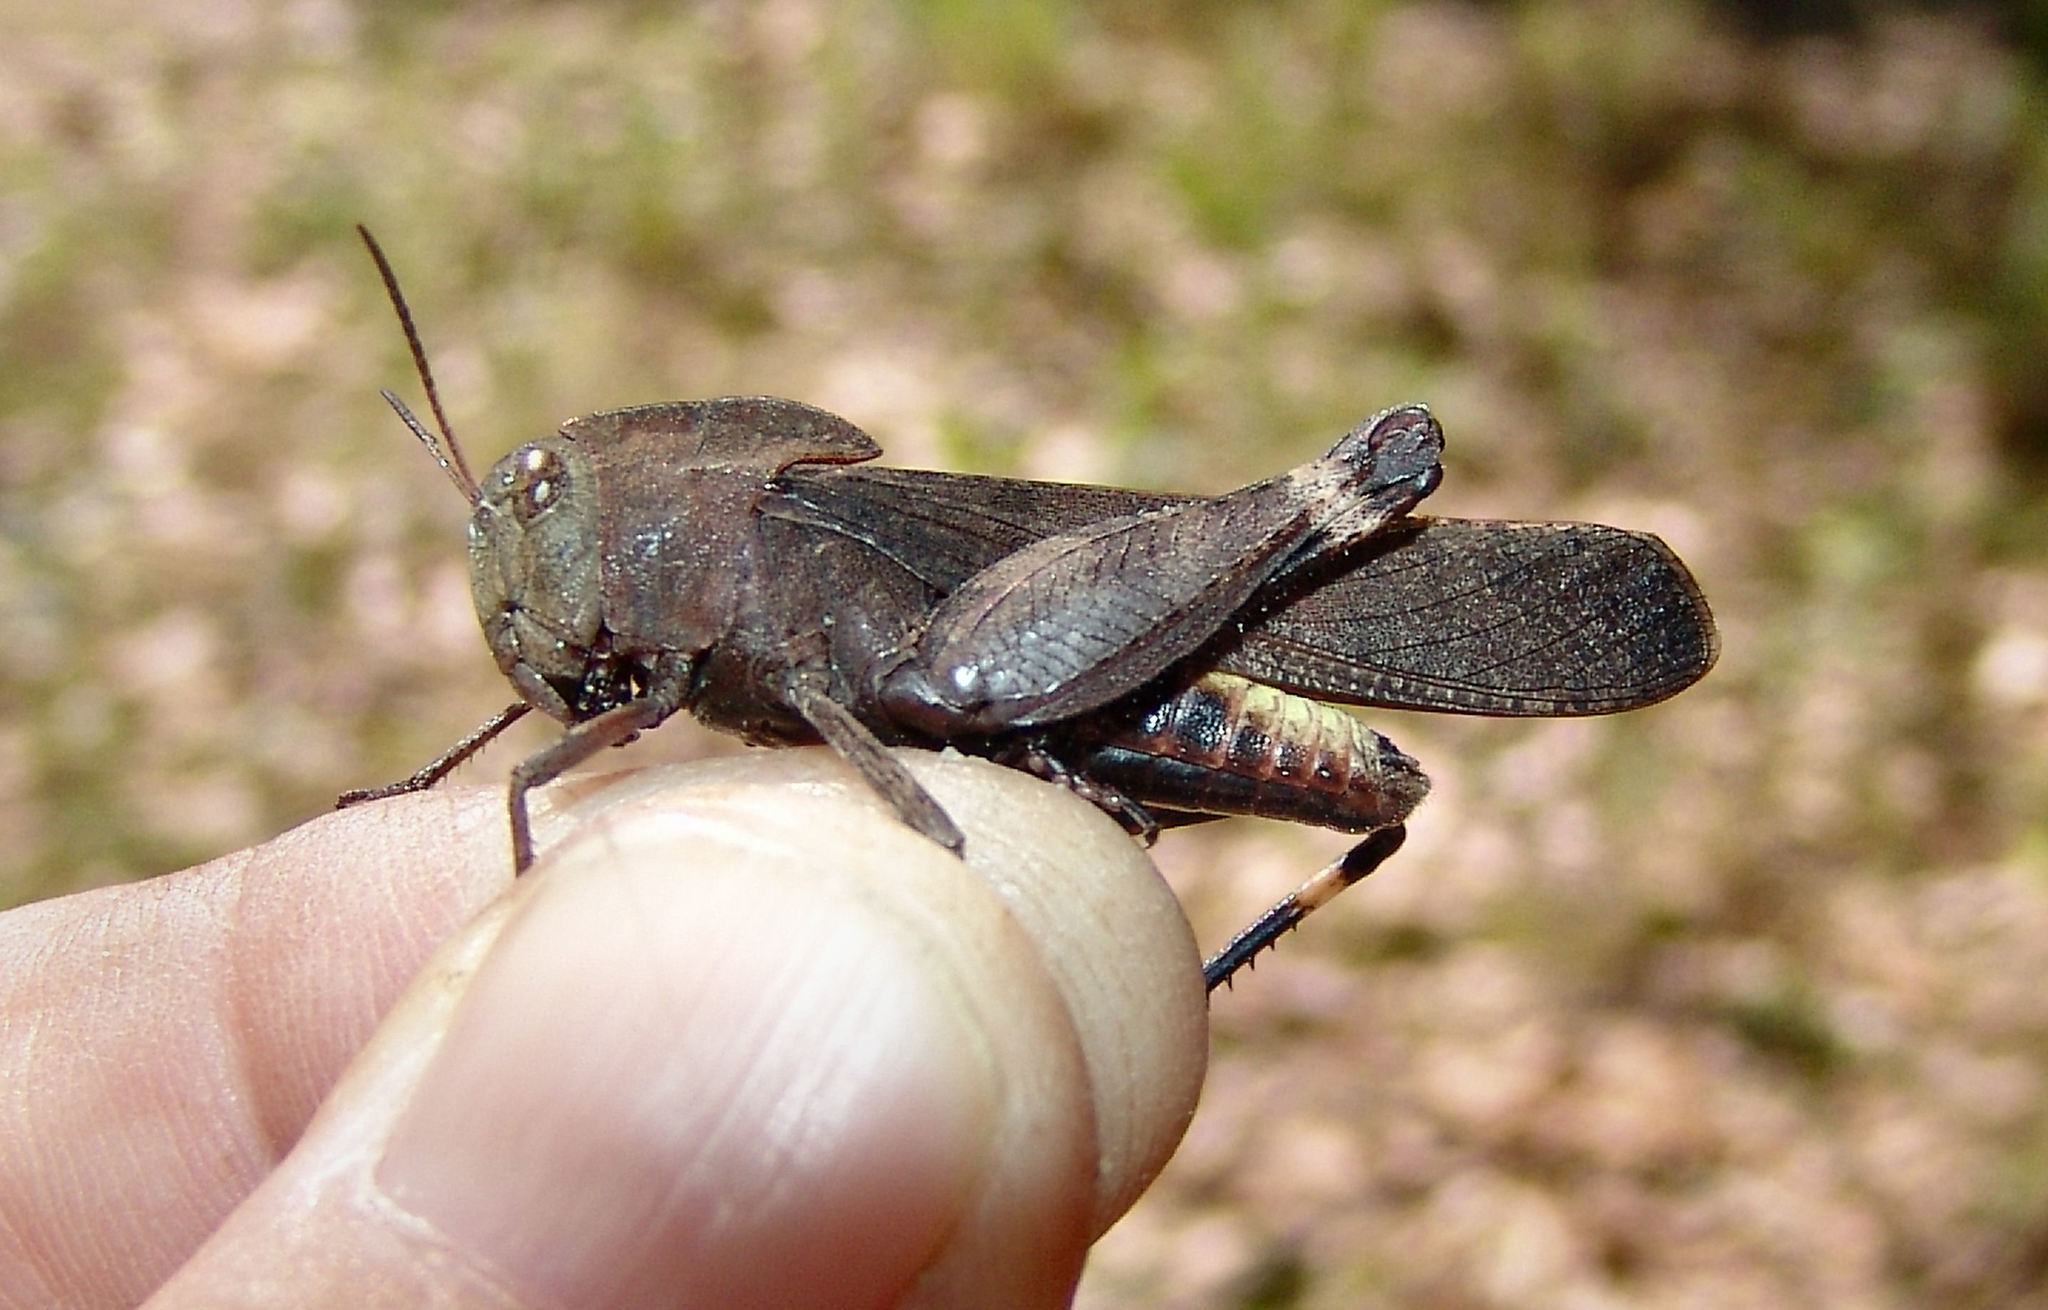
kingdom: Animalia
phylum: Arthropoda
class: Insecta
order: Orthoptera
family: Acrididae
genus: Arphia
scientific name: Arphia xanthoptera
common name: Autumn yellow-winged grasshopper
